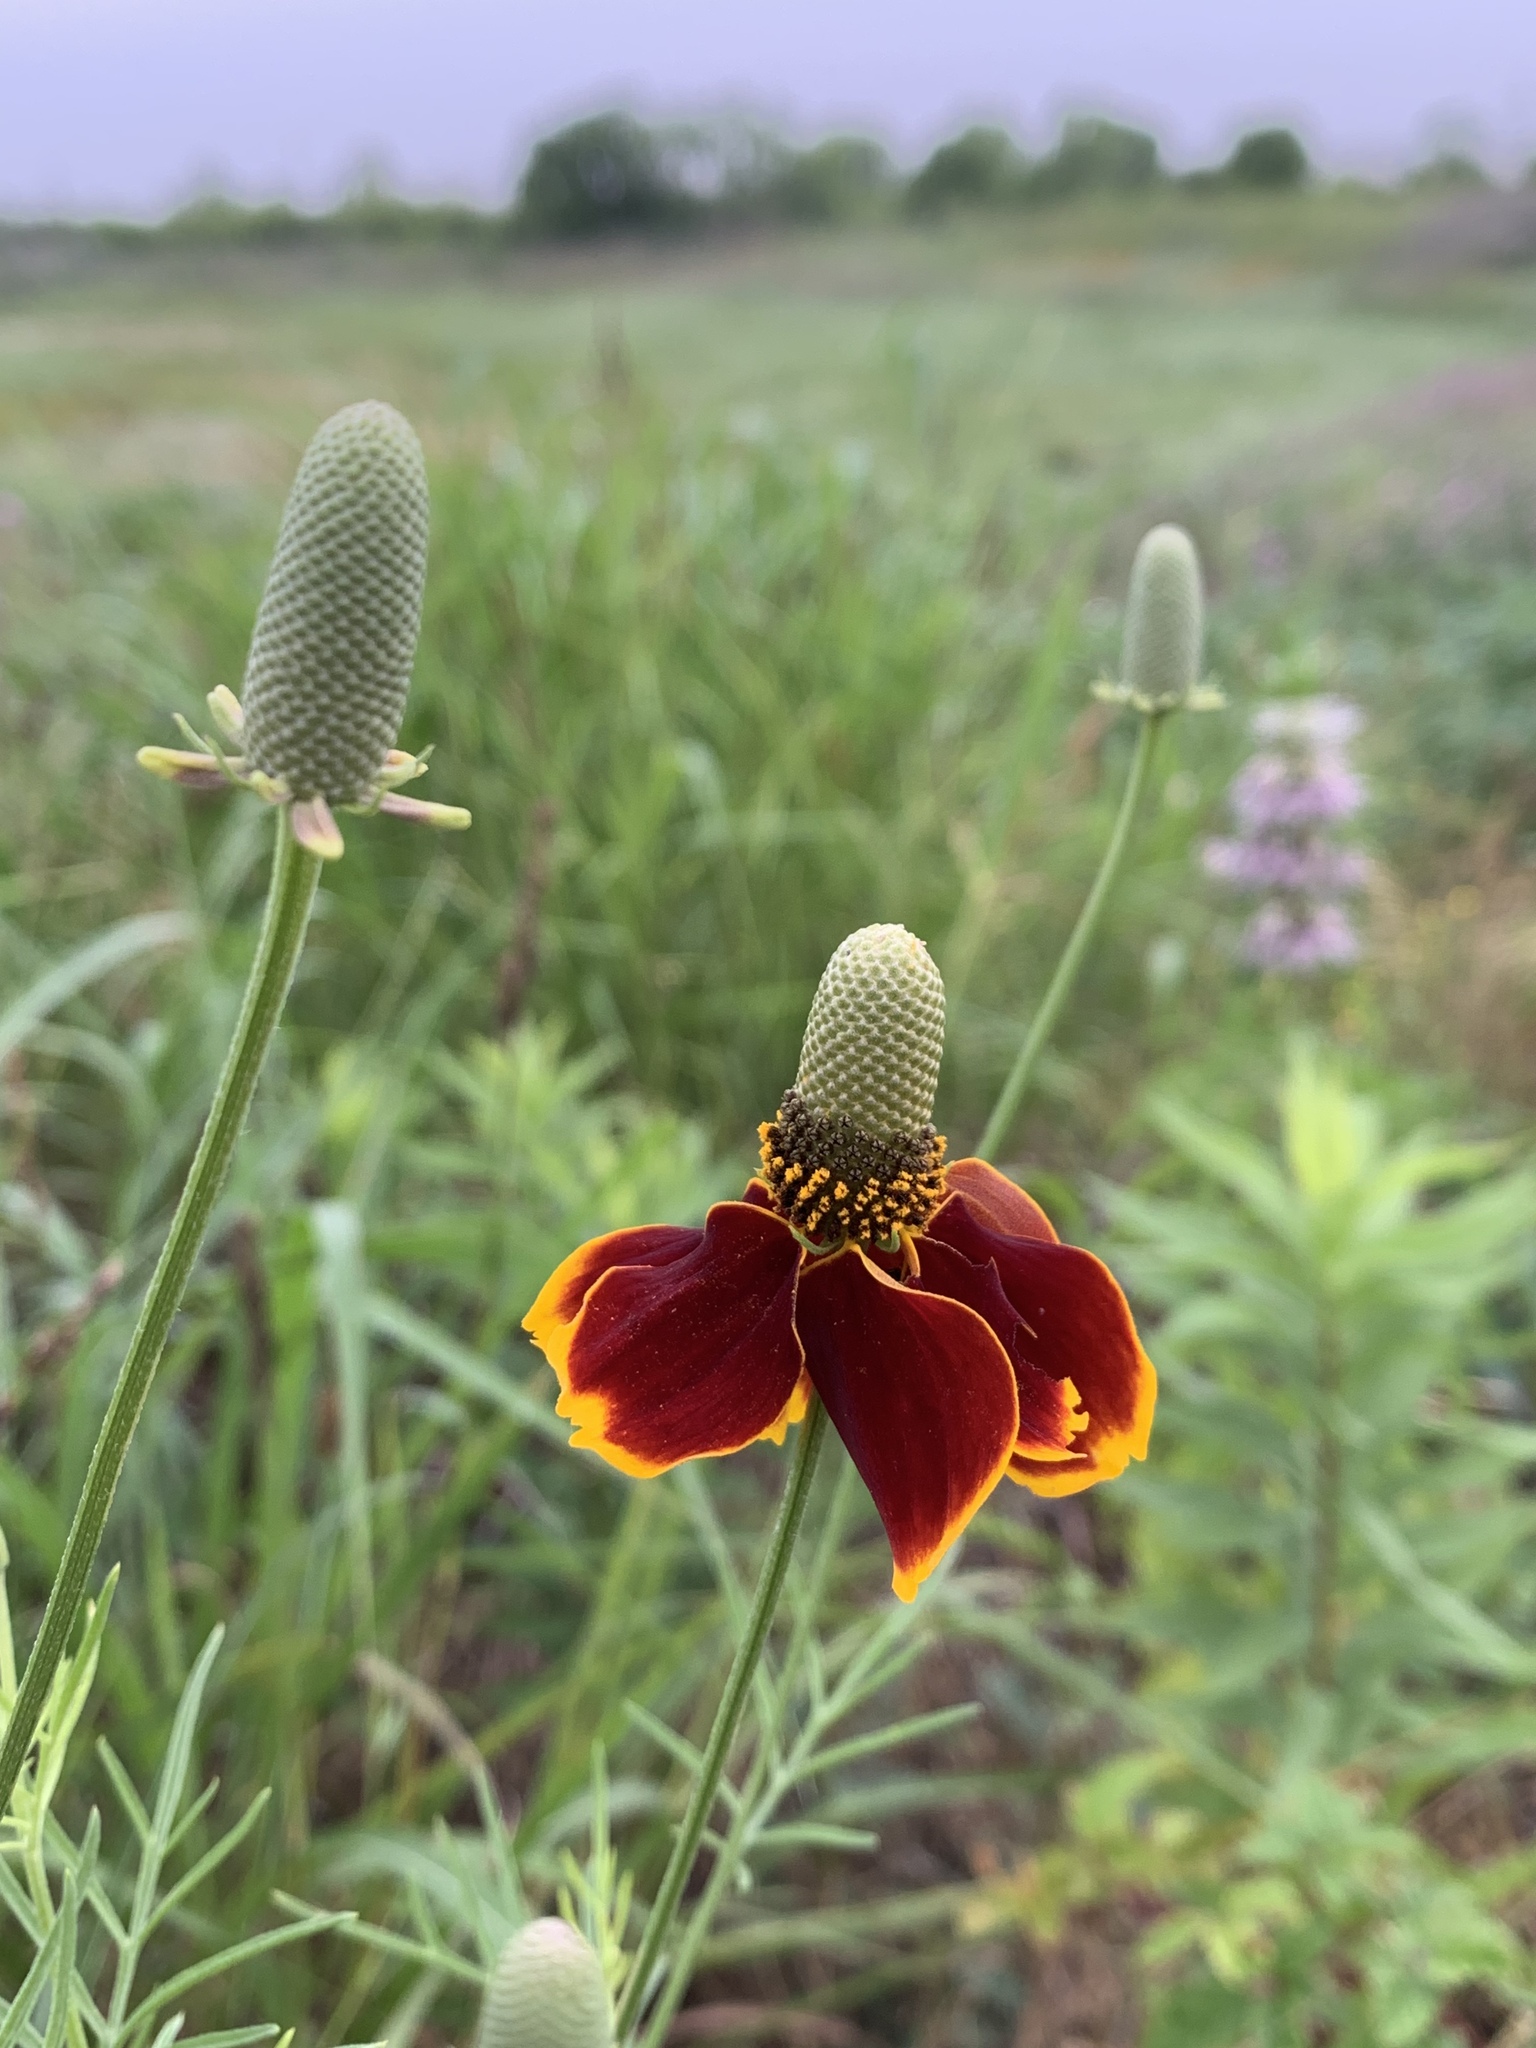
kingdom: Plantae
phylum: Tracheophyta
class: Magnoliopsida
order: Asterales
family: Asteraceae
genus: Ratibida
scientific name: Ratibida columnifera
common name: Prairie coneflower
